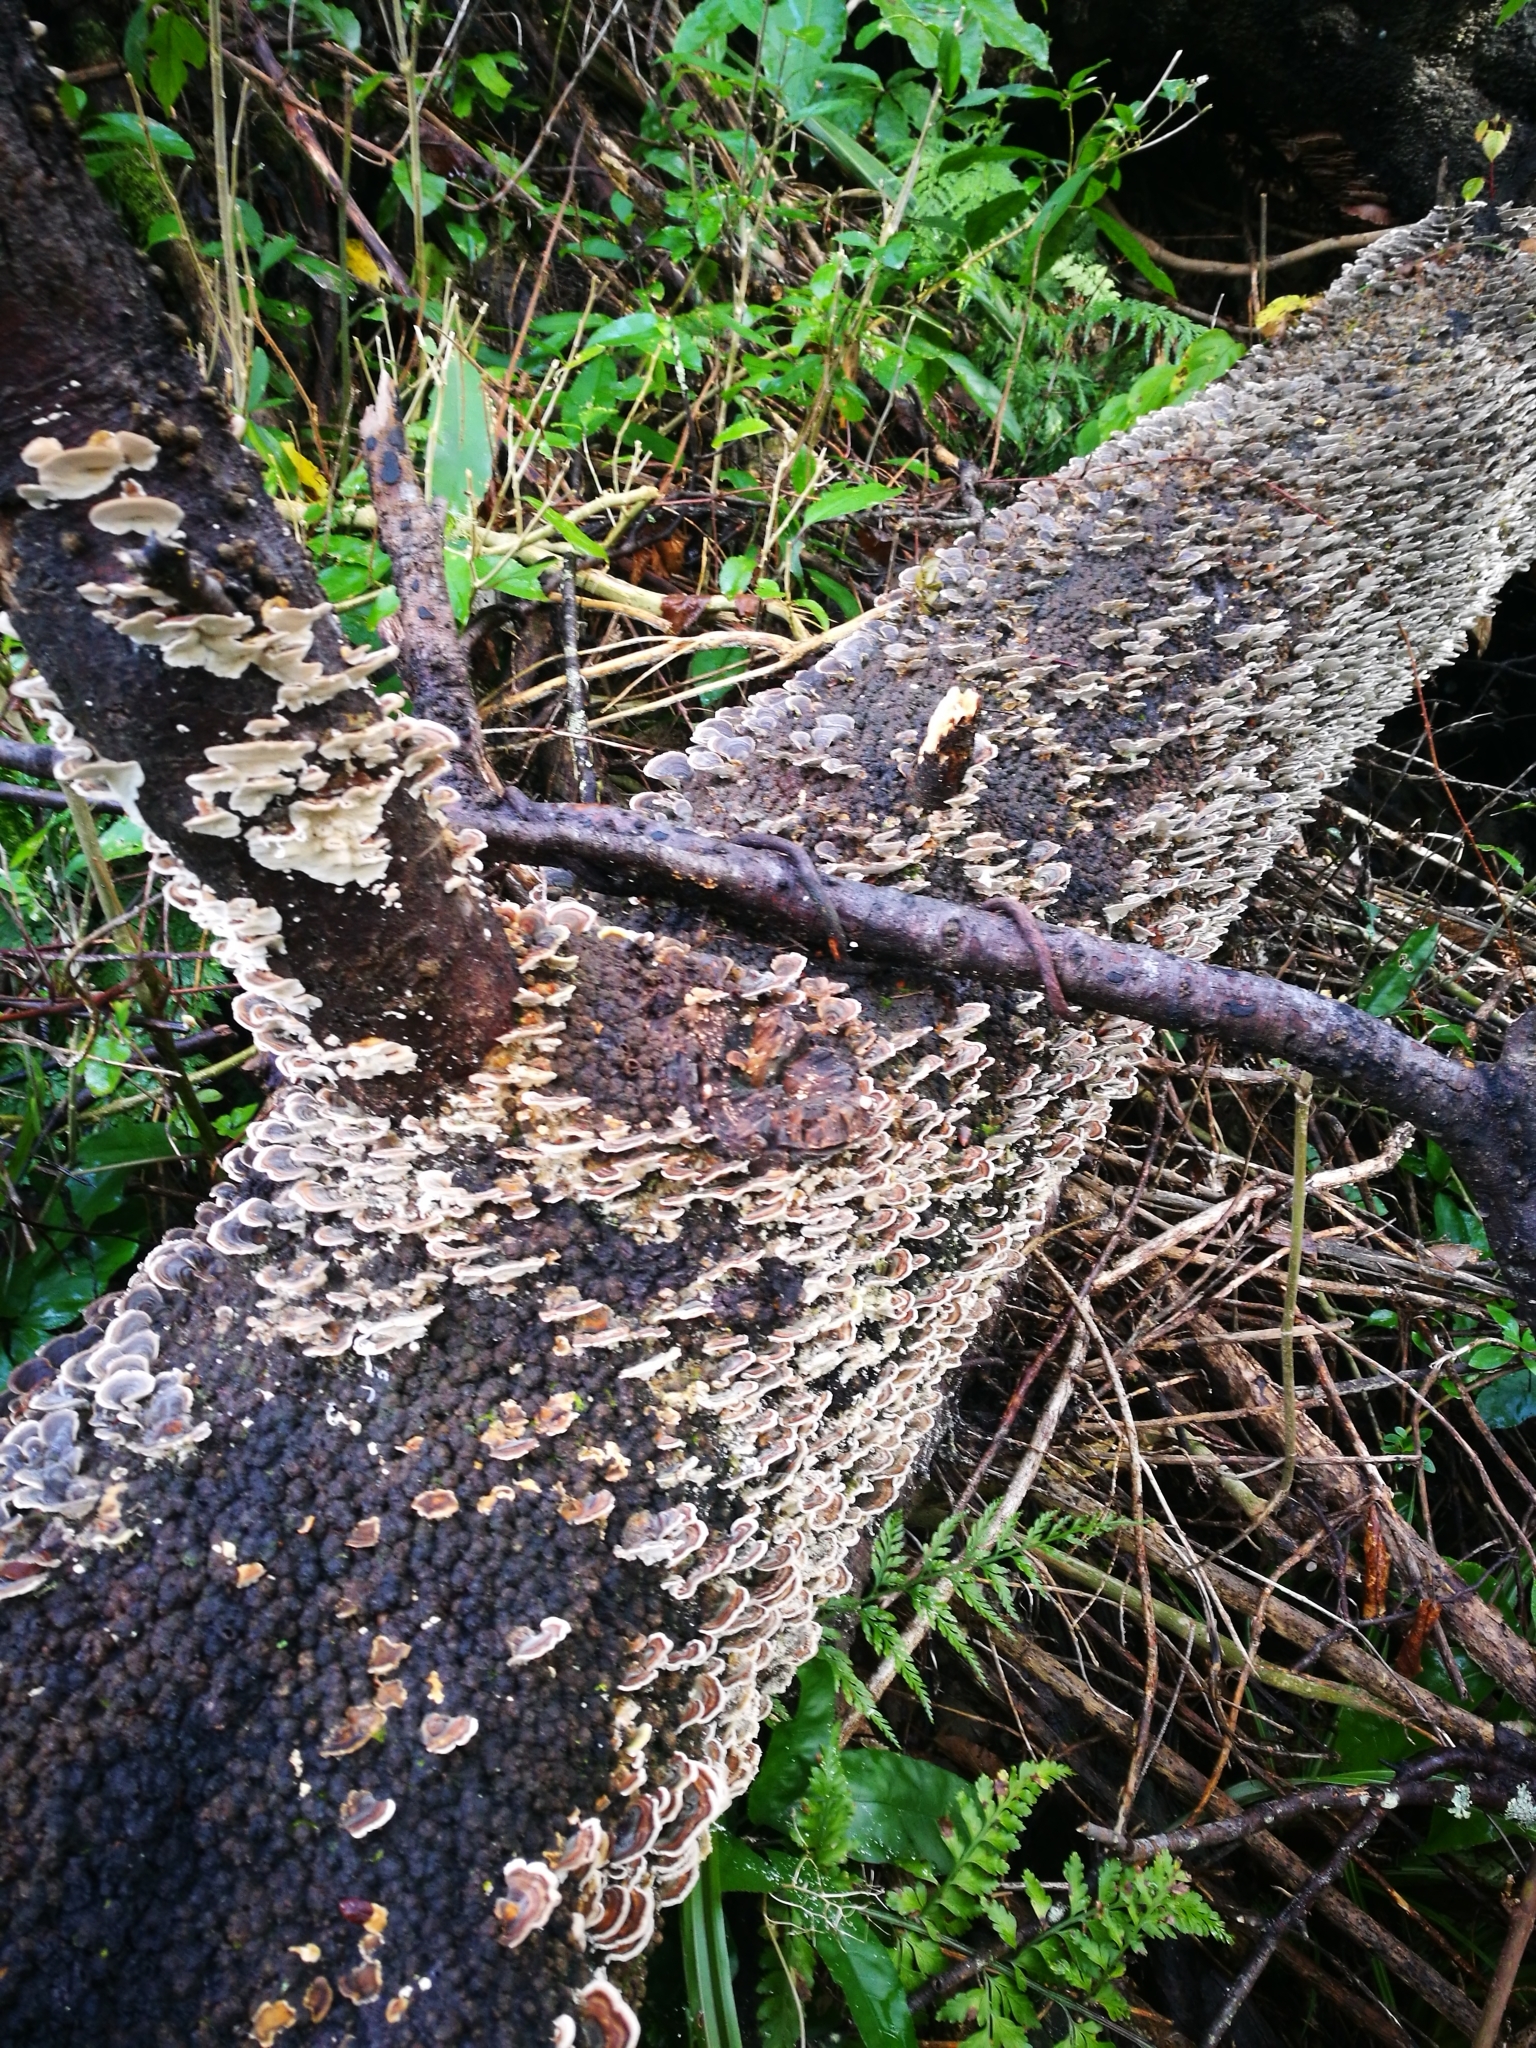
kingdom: Fungi
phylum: Basidiomycota
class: Agaricomycetes
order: Polyporales
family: Polyporaceae
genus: Trametes
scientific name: Trametes versicolor
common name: Turkeytail
